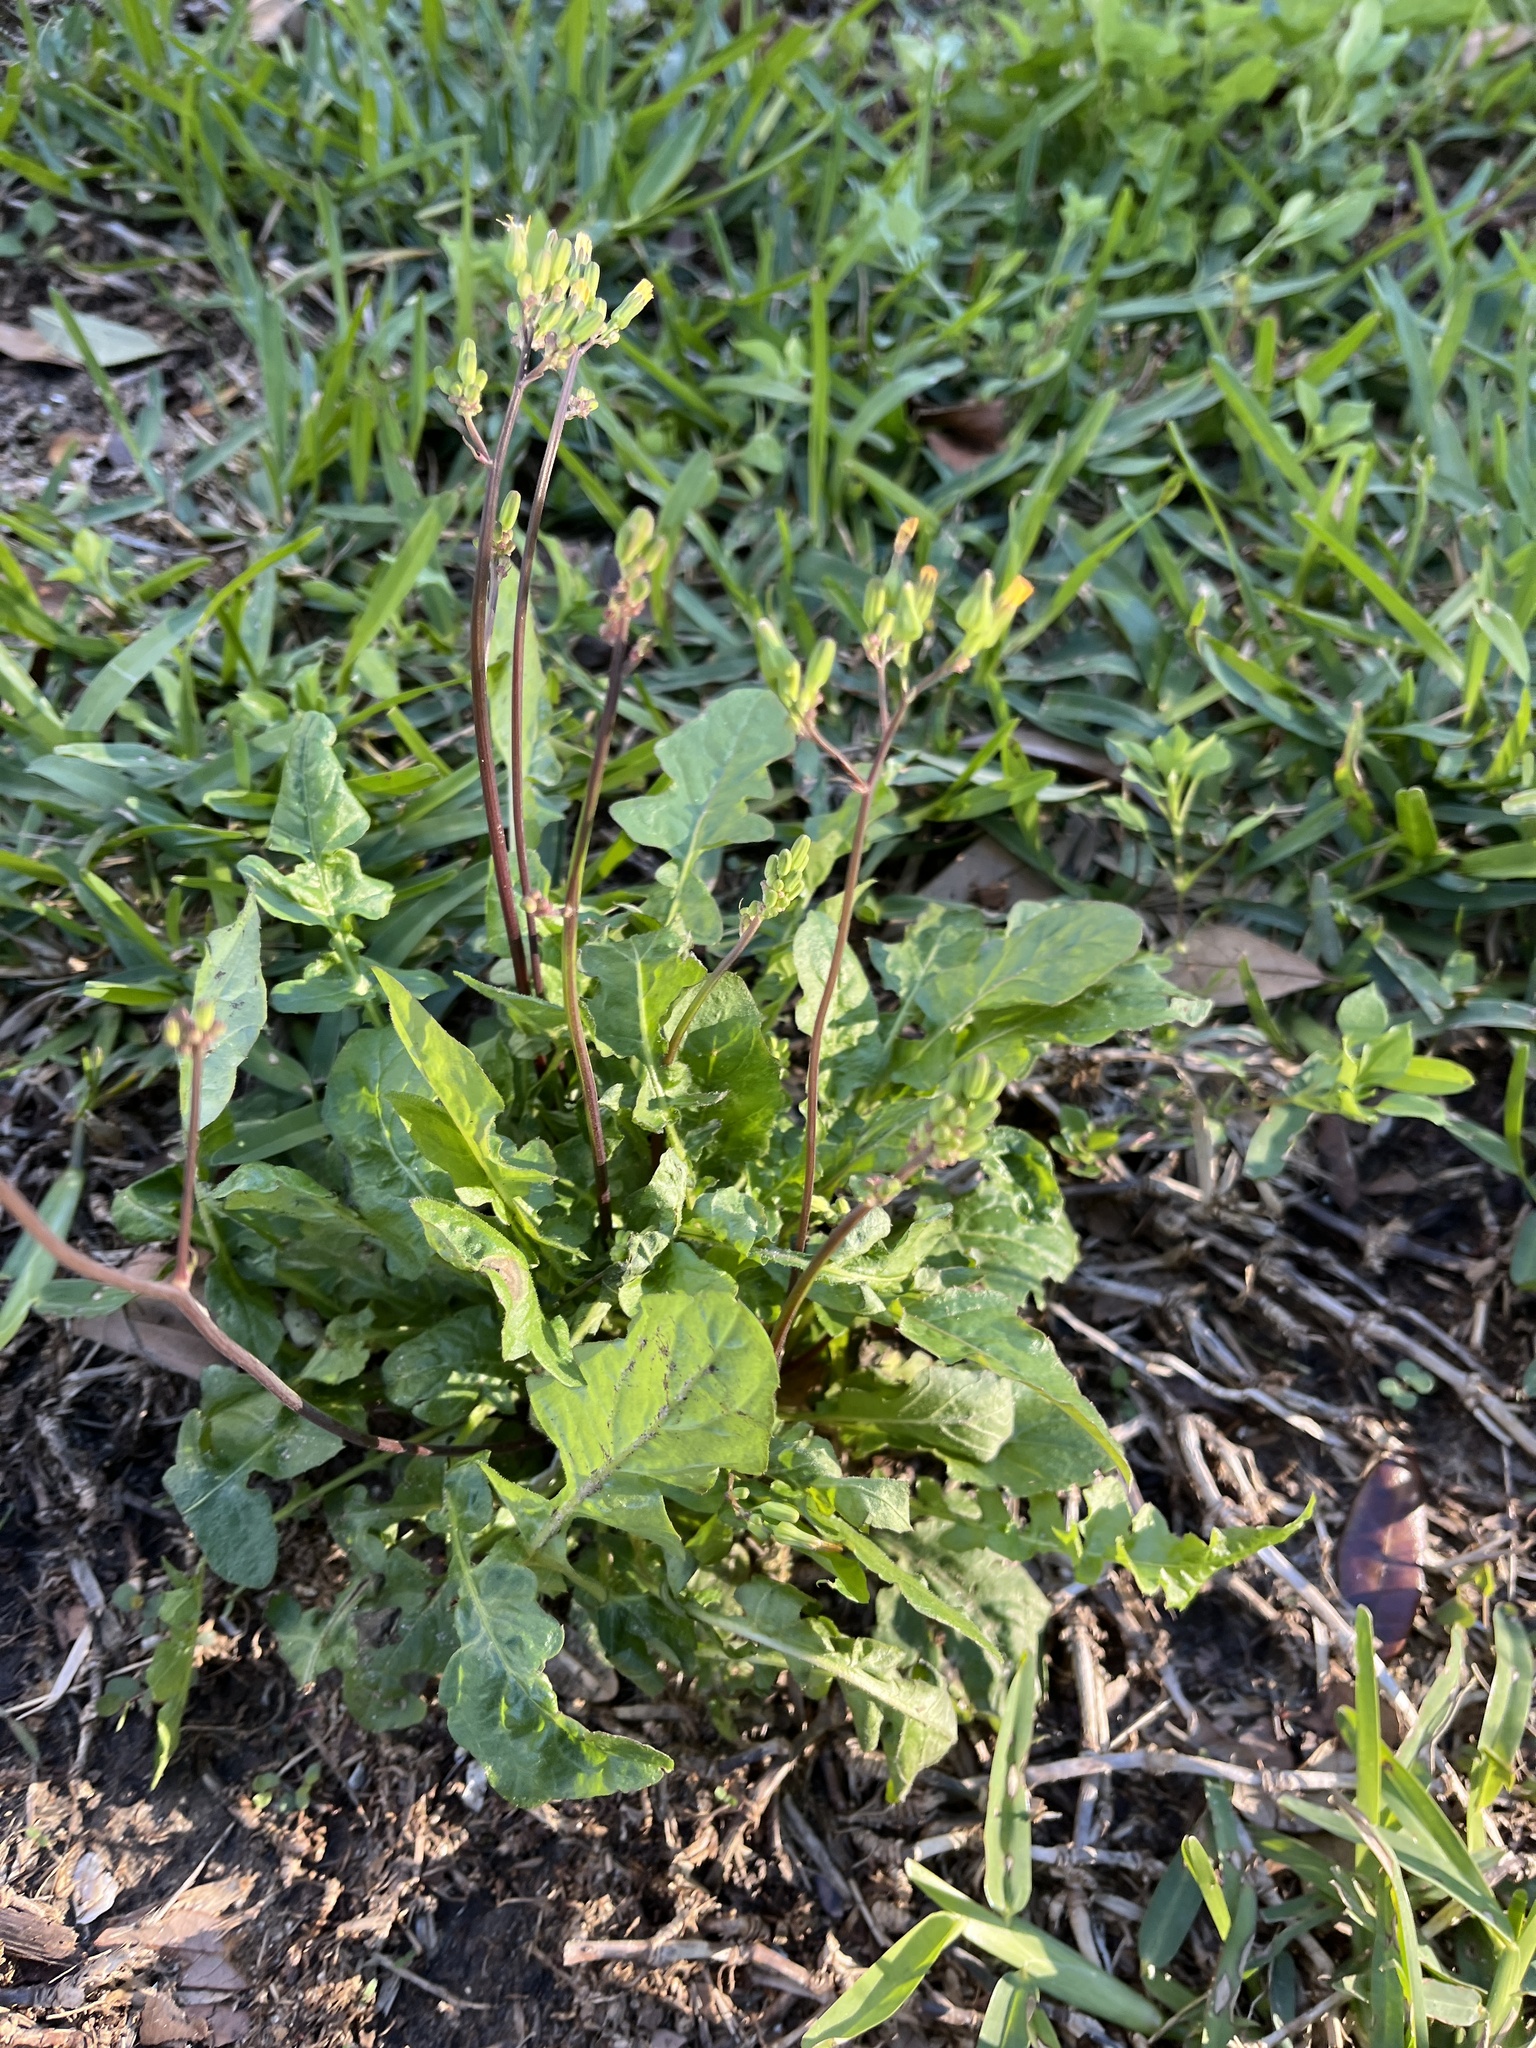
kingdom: Plantae
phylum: Tracheophyta
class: Magnoliopsida
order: Asterales
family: Asteraceae
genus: Youngia
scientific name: Youngia japonica
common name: Oriental false hawksbeard
